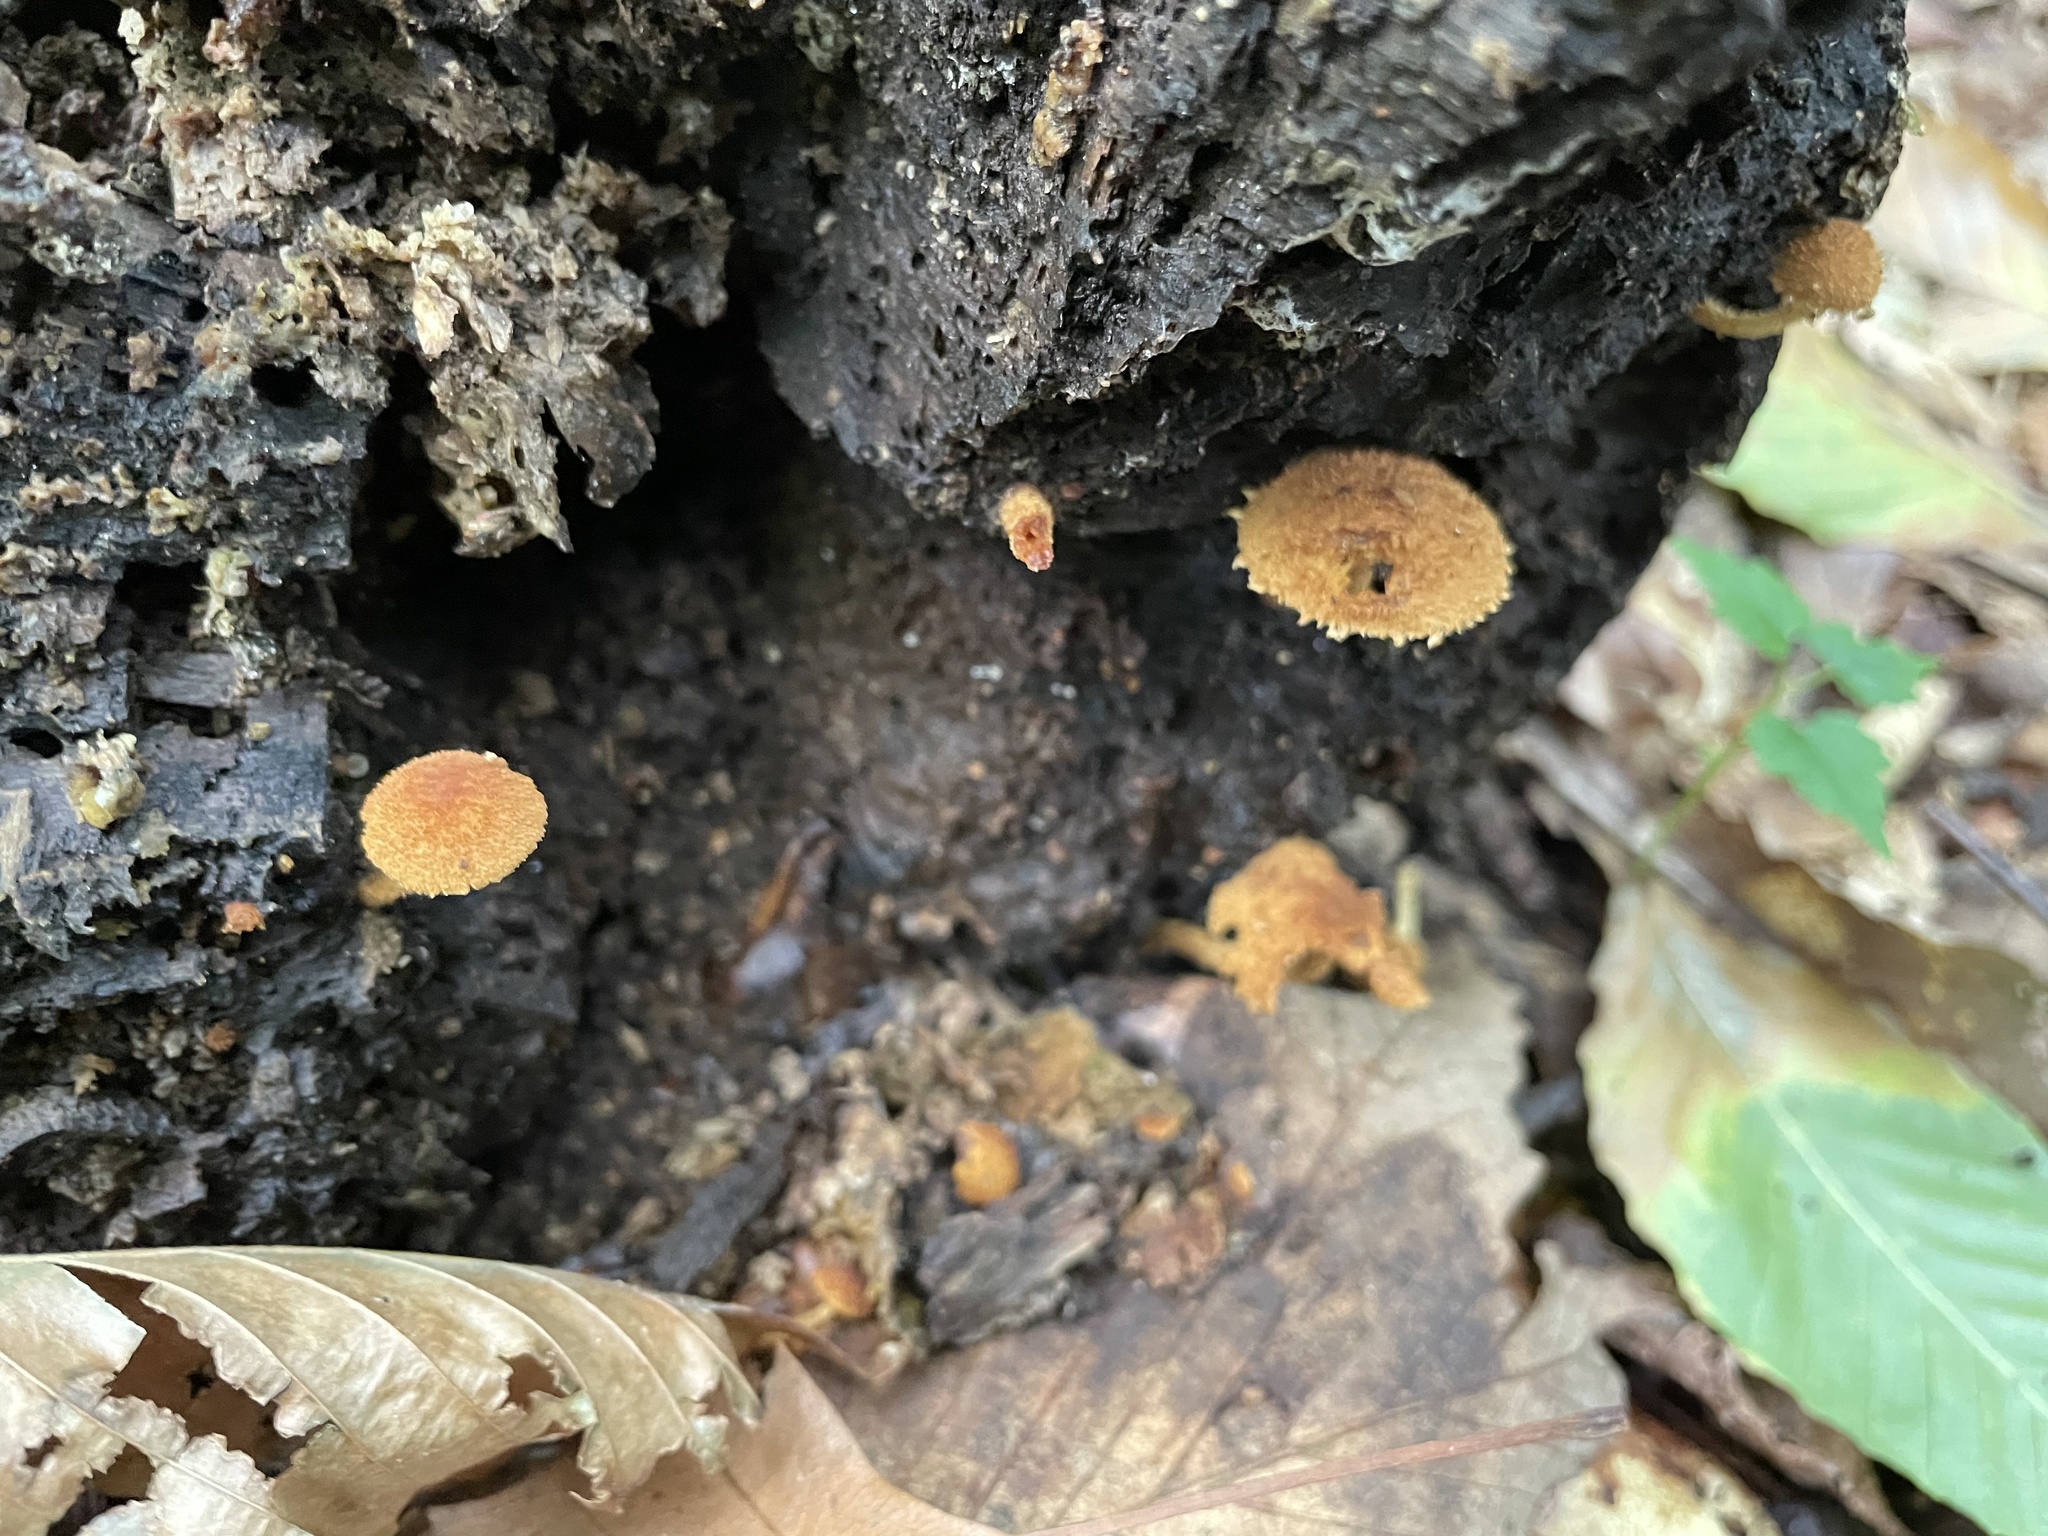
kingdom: Fungi
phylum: Basidiomycota
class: Agaricomycetes
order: Agaricales
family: Tubariaceae
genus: Flammulaster
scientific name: Flammulaster erinaceellus
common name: Powder-scale pholiota
